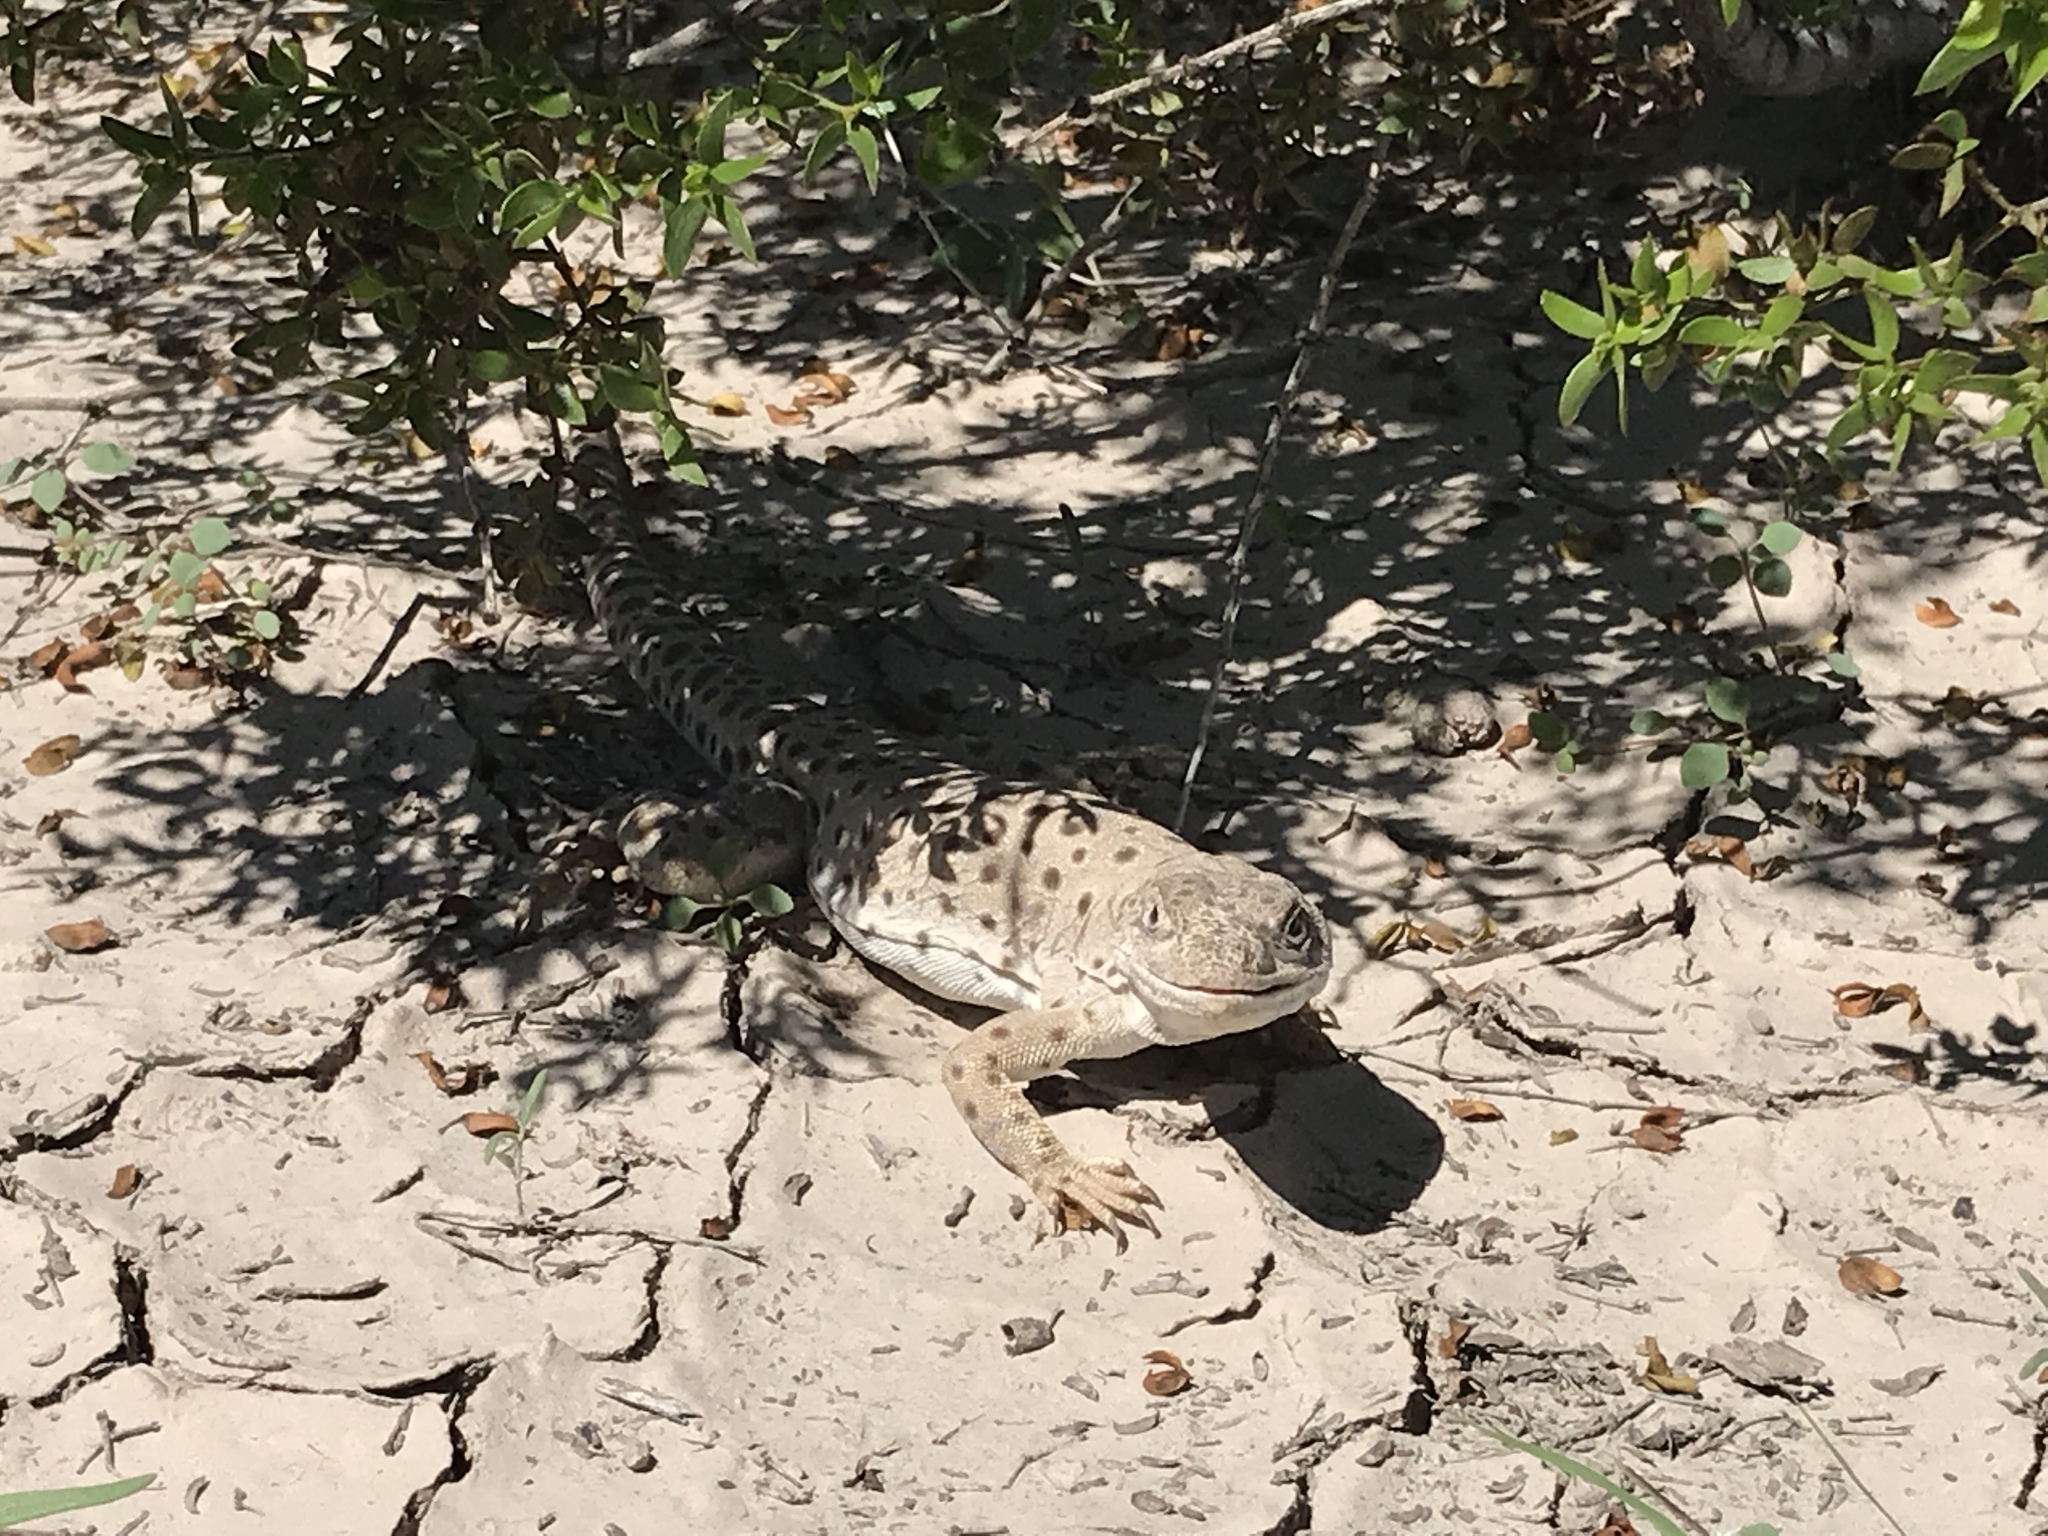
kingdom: Animalia
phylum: Chordata
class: Squamata
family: Crotaphytidae
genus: Gambelia
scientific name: Gambelia wislizenii
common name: Longnose leopard lizard
